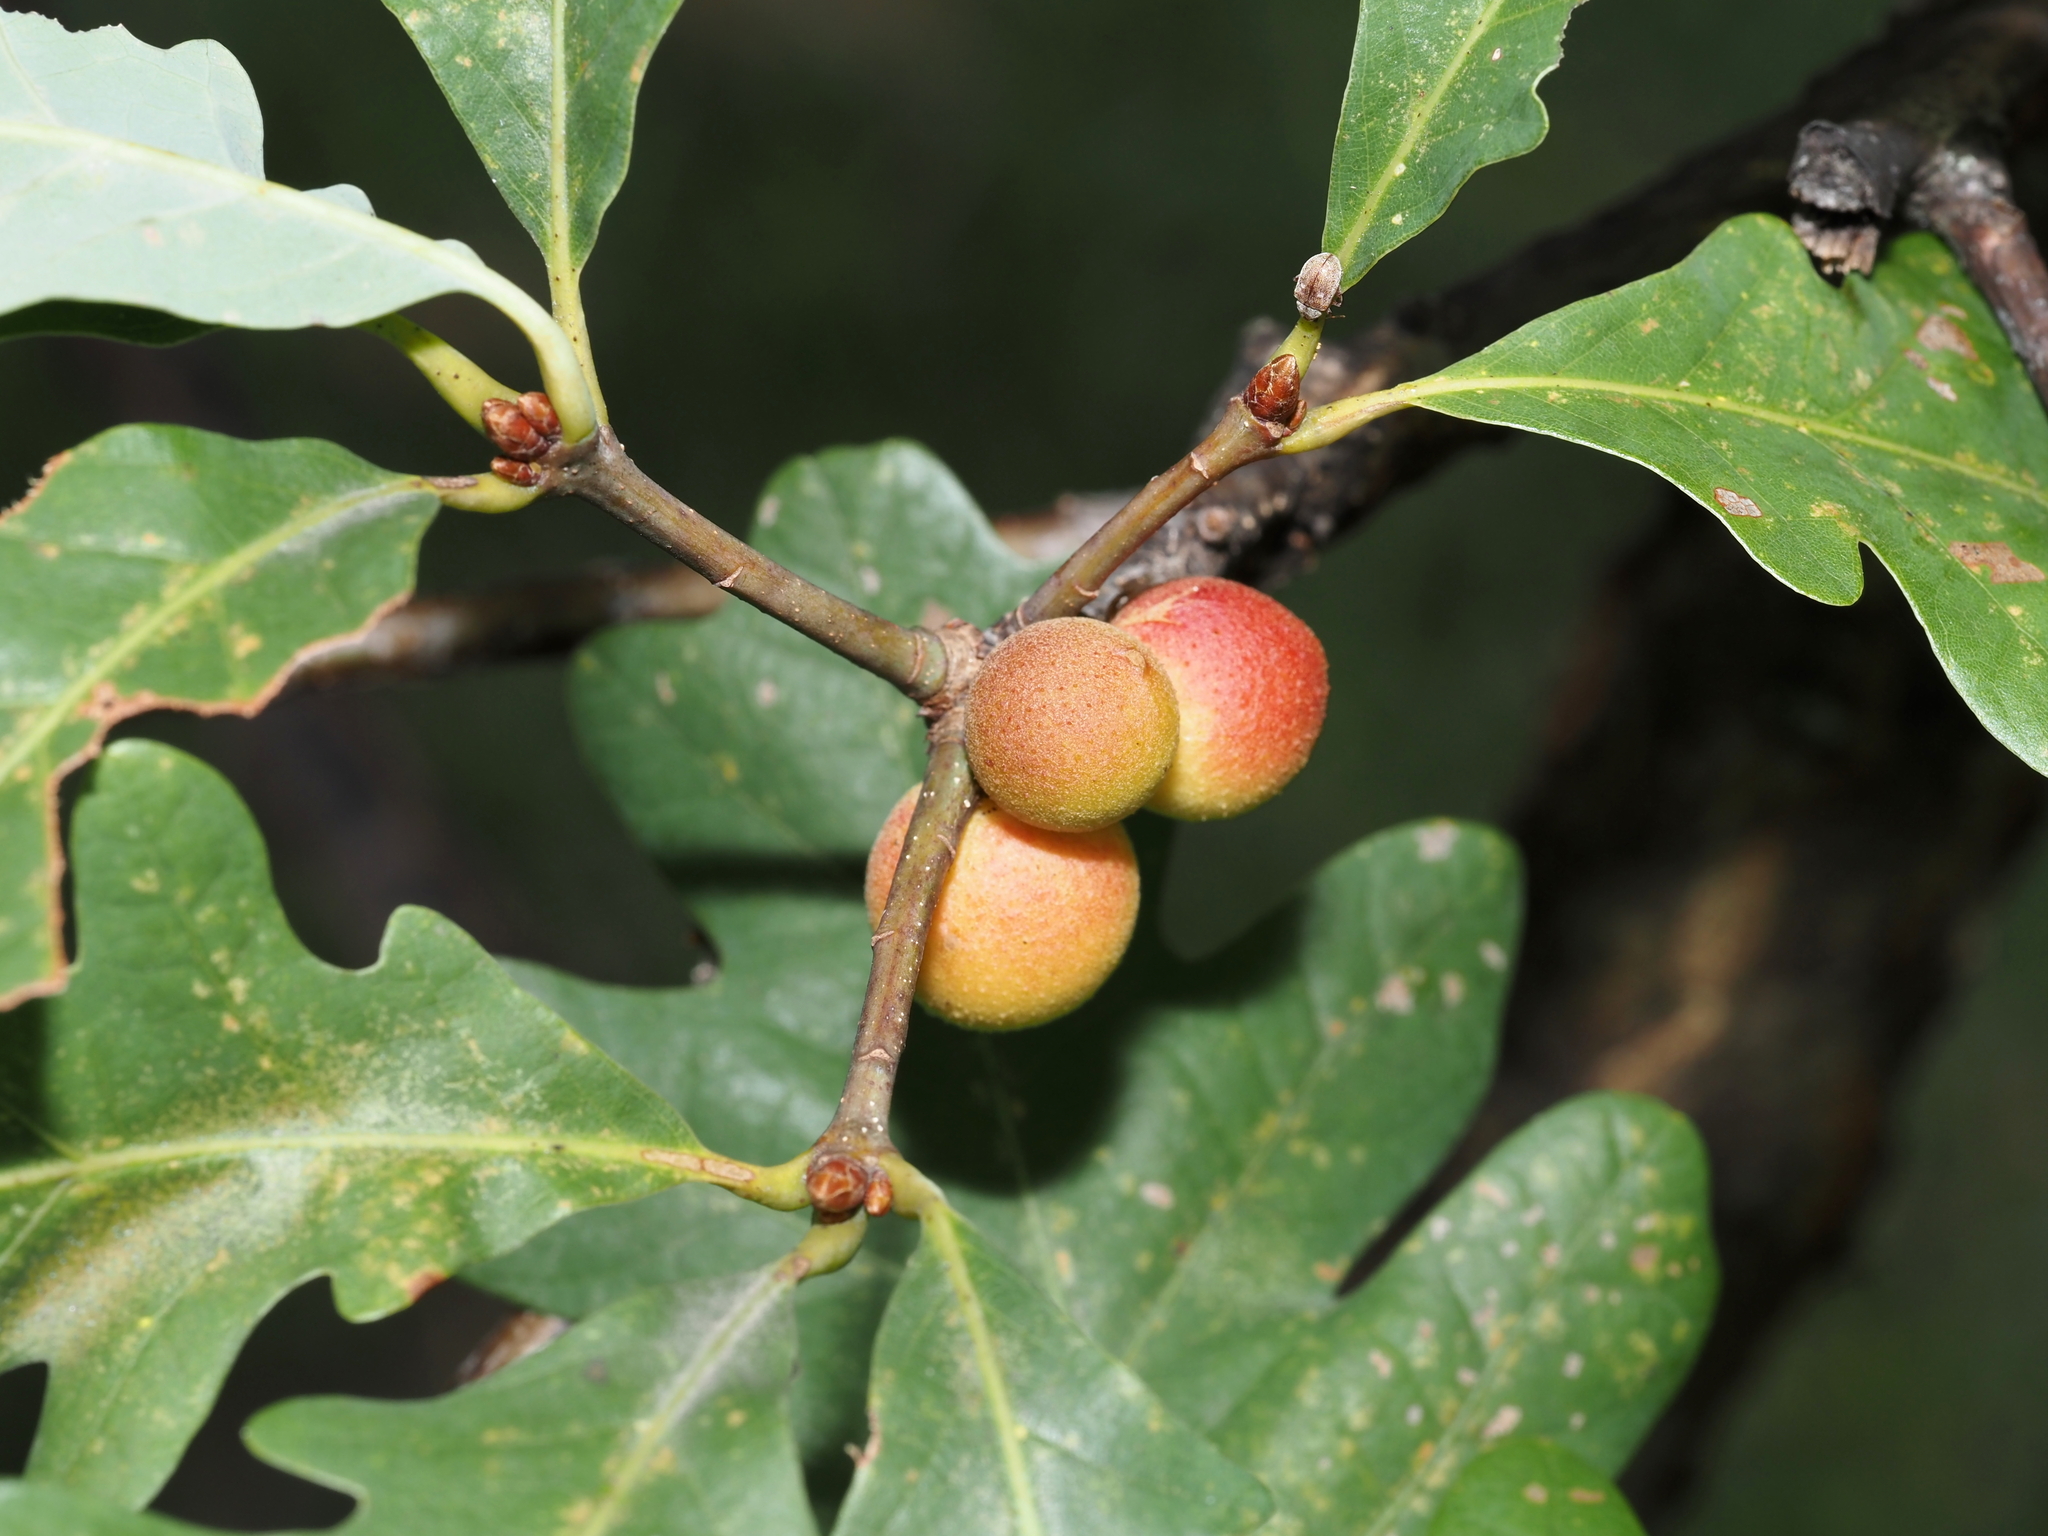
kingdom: Animalia
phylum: Arthropoda
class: Insecta
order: Hymenoptera
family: Cynipidae
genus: Disholcaspis
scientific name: Disholcaspis quercusglobulus
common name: Round bullet gall wasp
